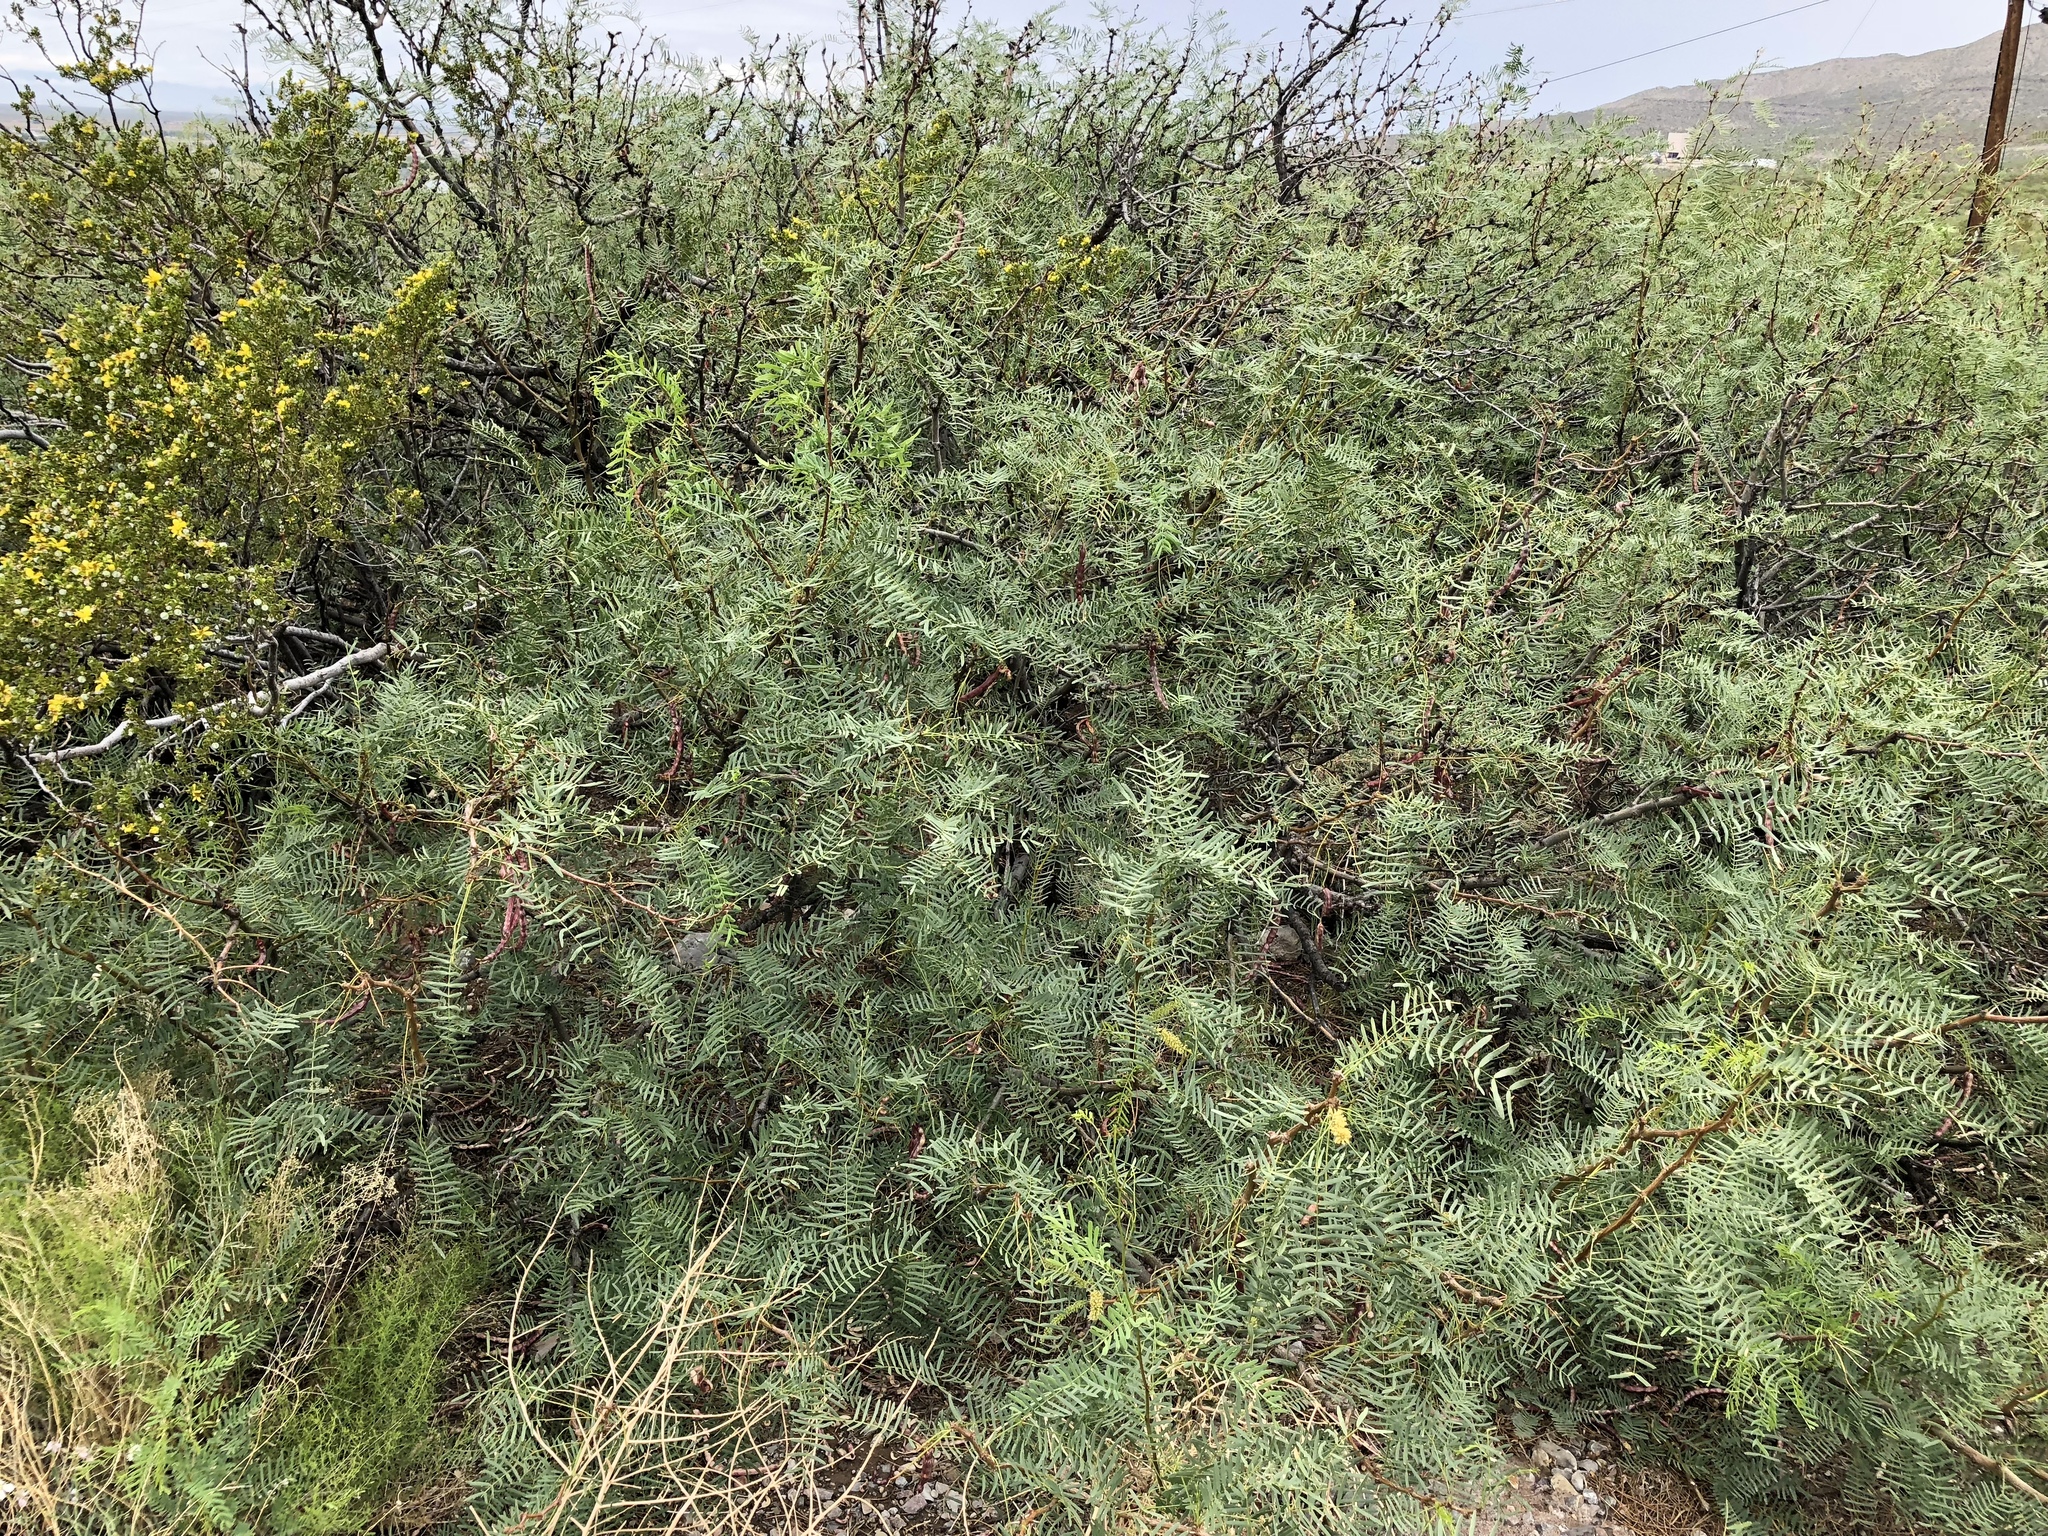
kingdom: Plantae
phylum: Tracheophyta
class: Magnoliopsida
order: Fabales
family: Fabaceae
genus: Prosopis
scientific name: Prosopis glandulosa
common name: Honey mesquite
